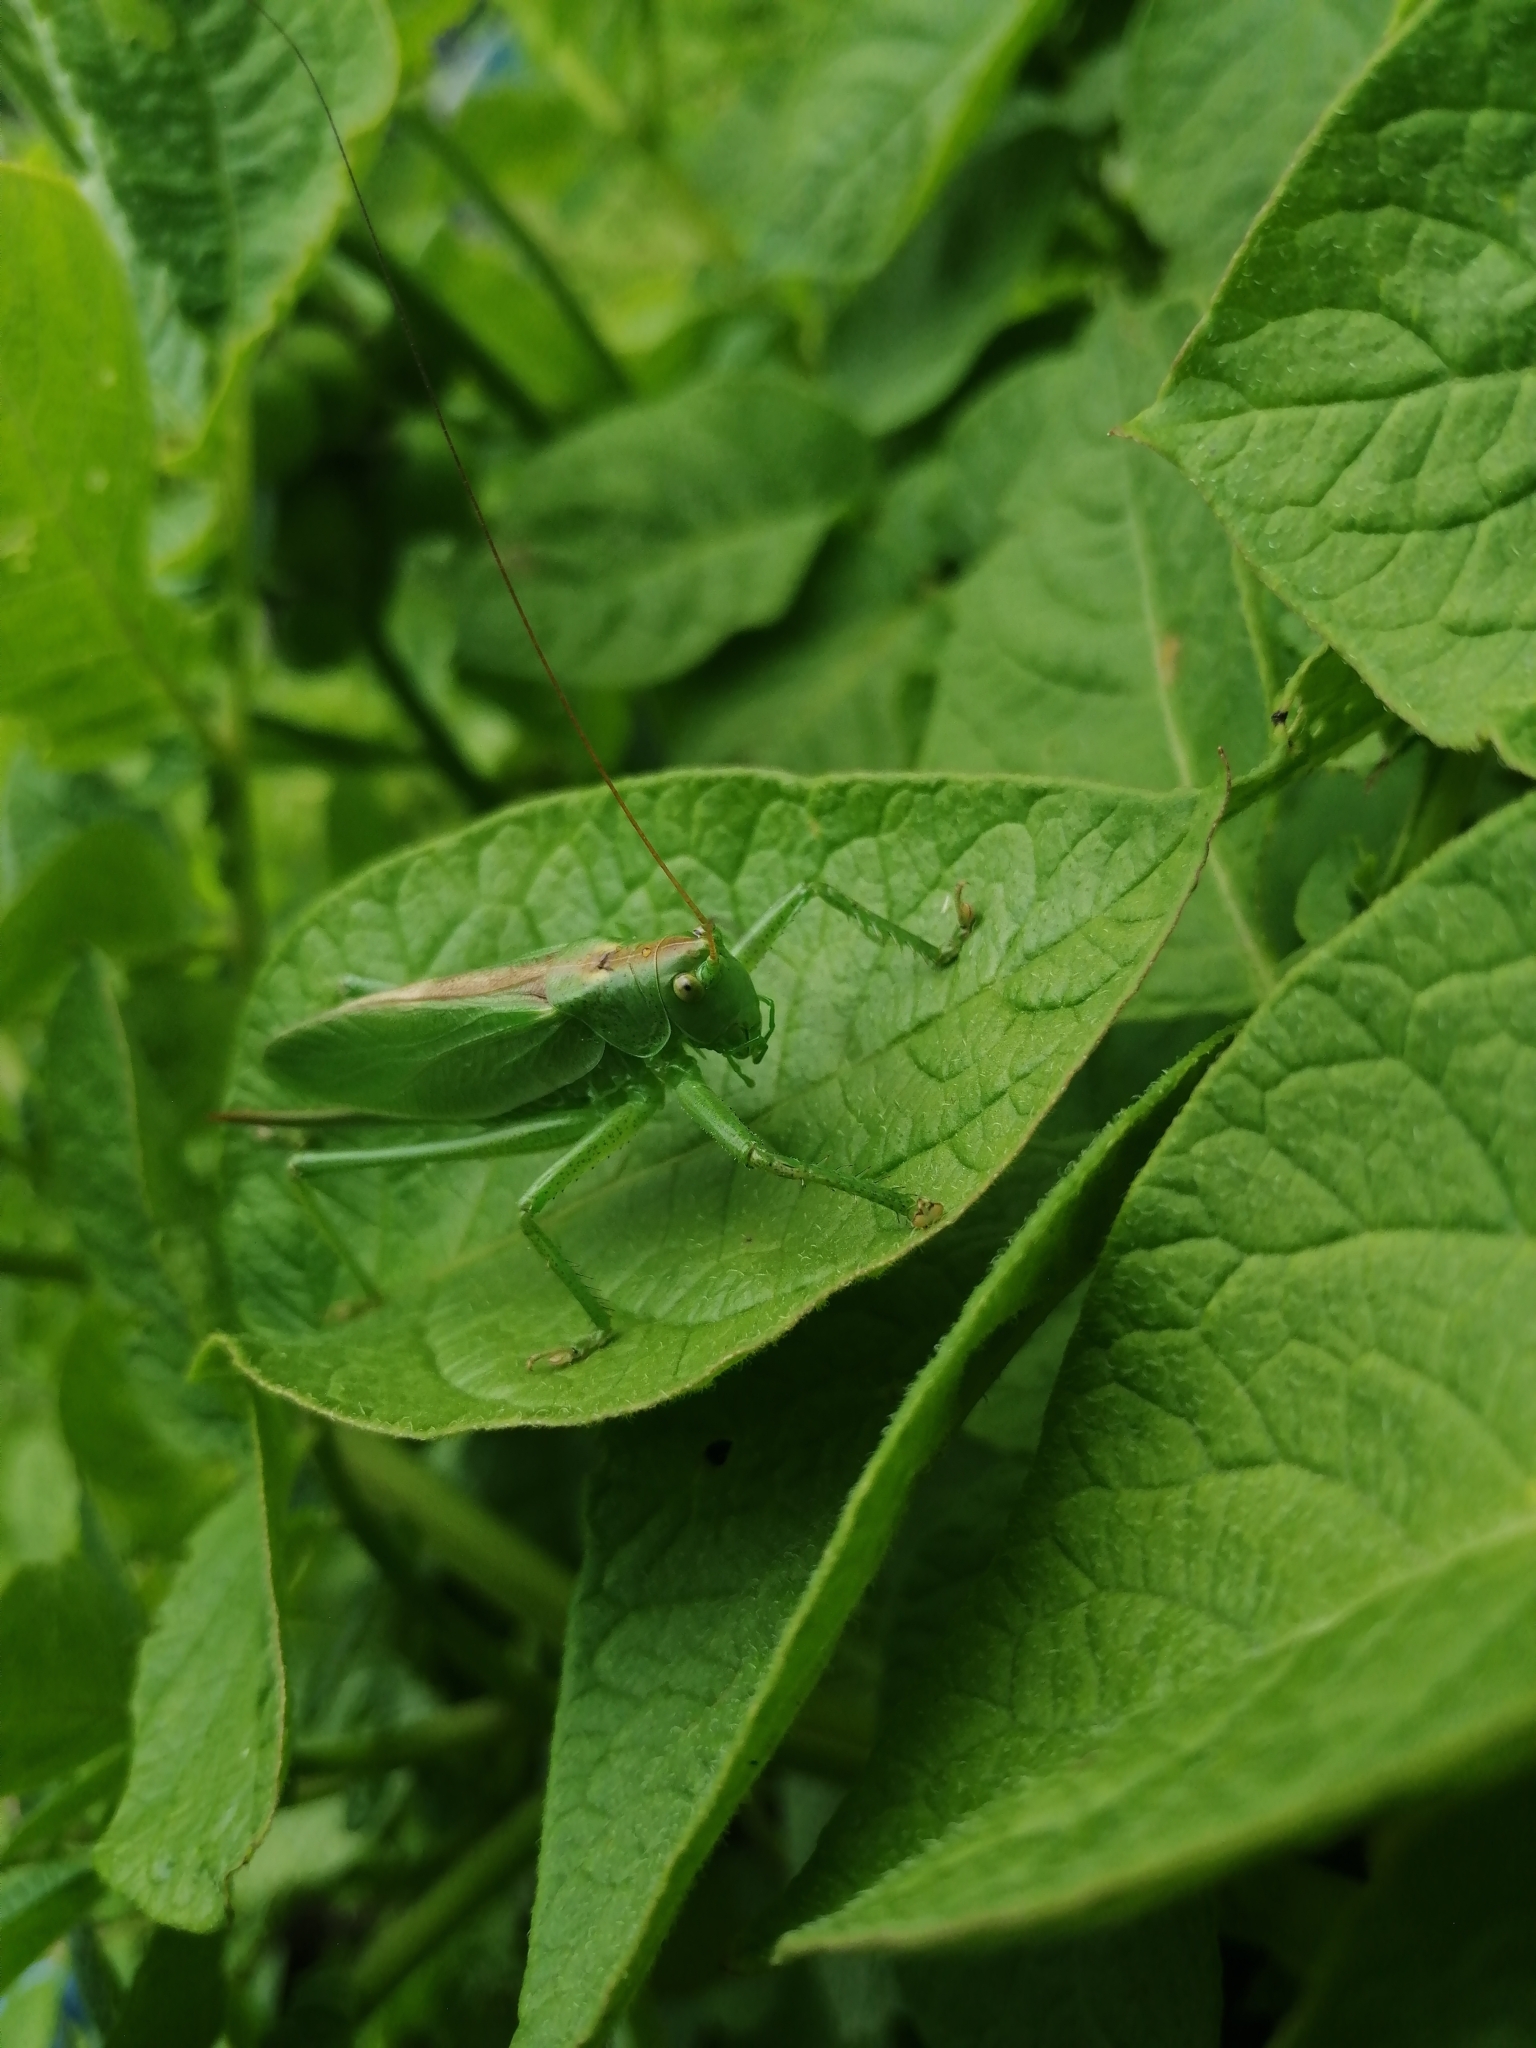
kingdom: Animalia
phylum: Arthropoda
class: Insecta
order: Orthoptera
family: Tettigoniidae
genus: Tettigonia
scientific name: Tettigonia cantans
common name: Upland green bush-cricket
